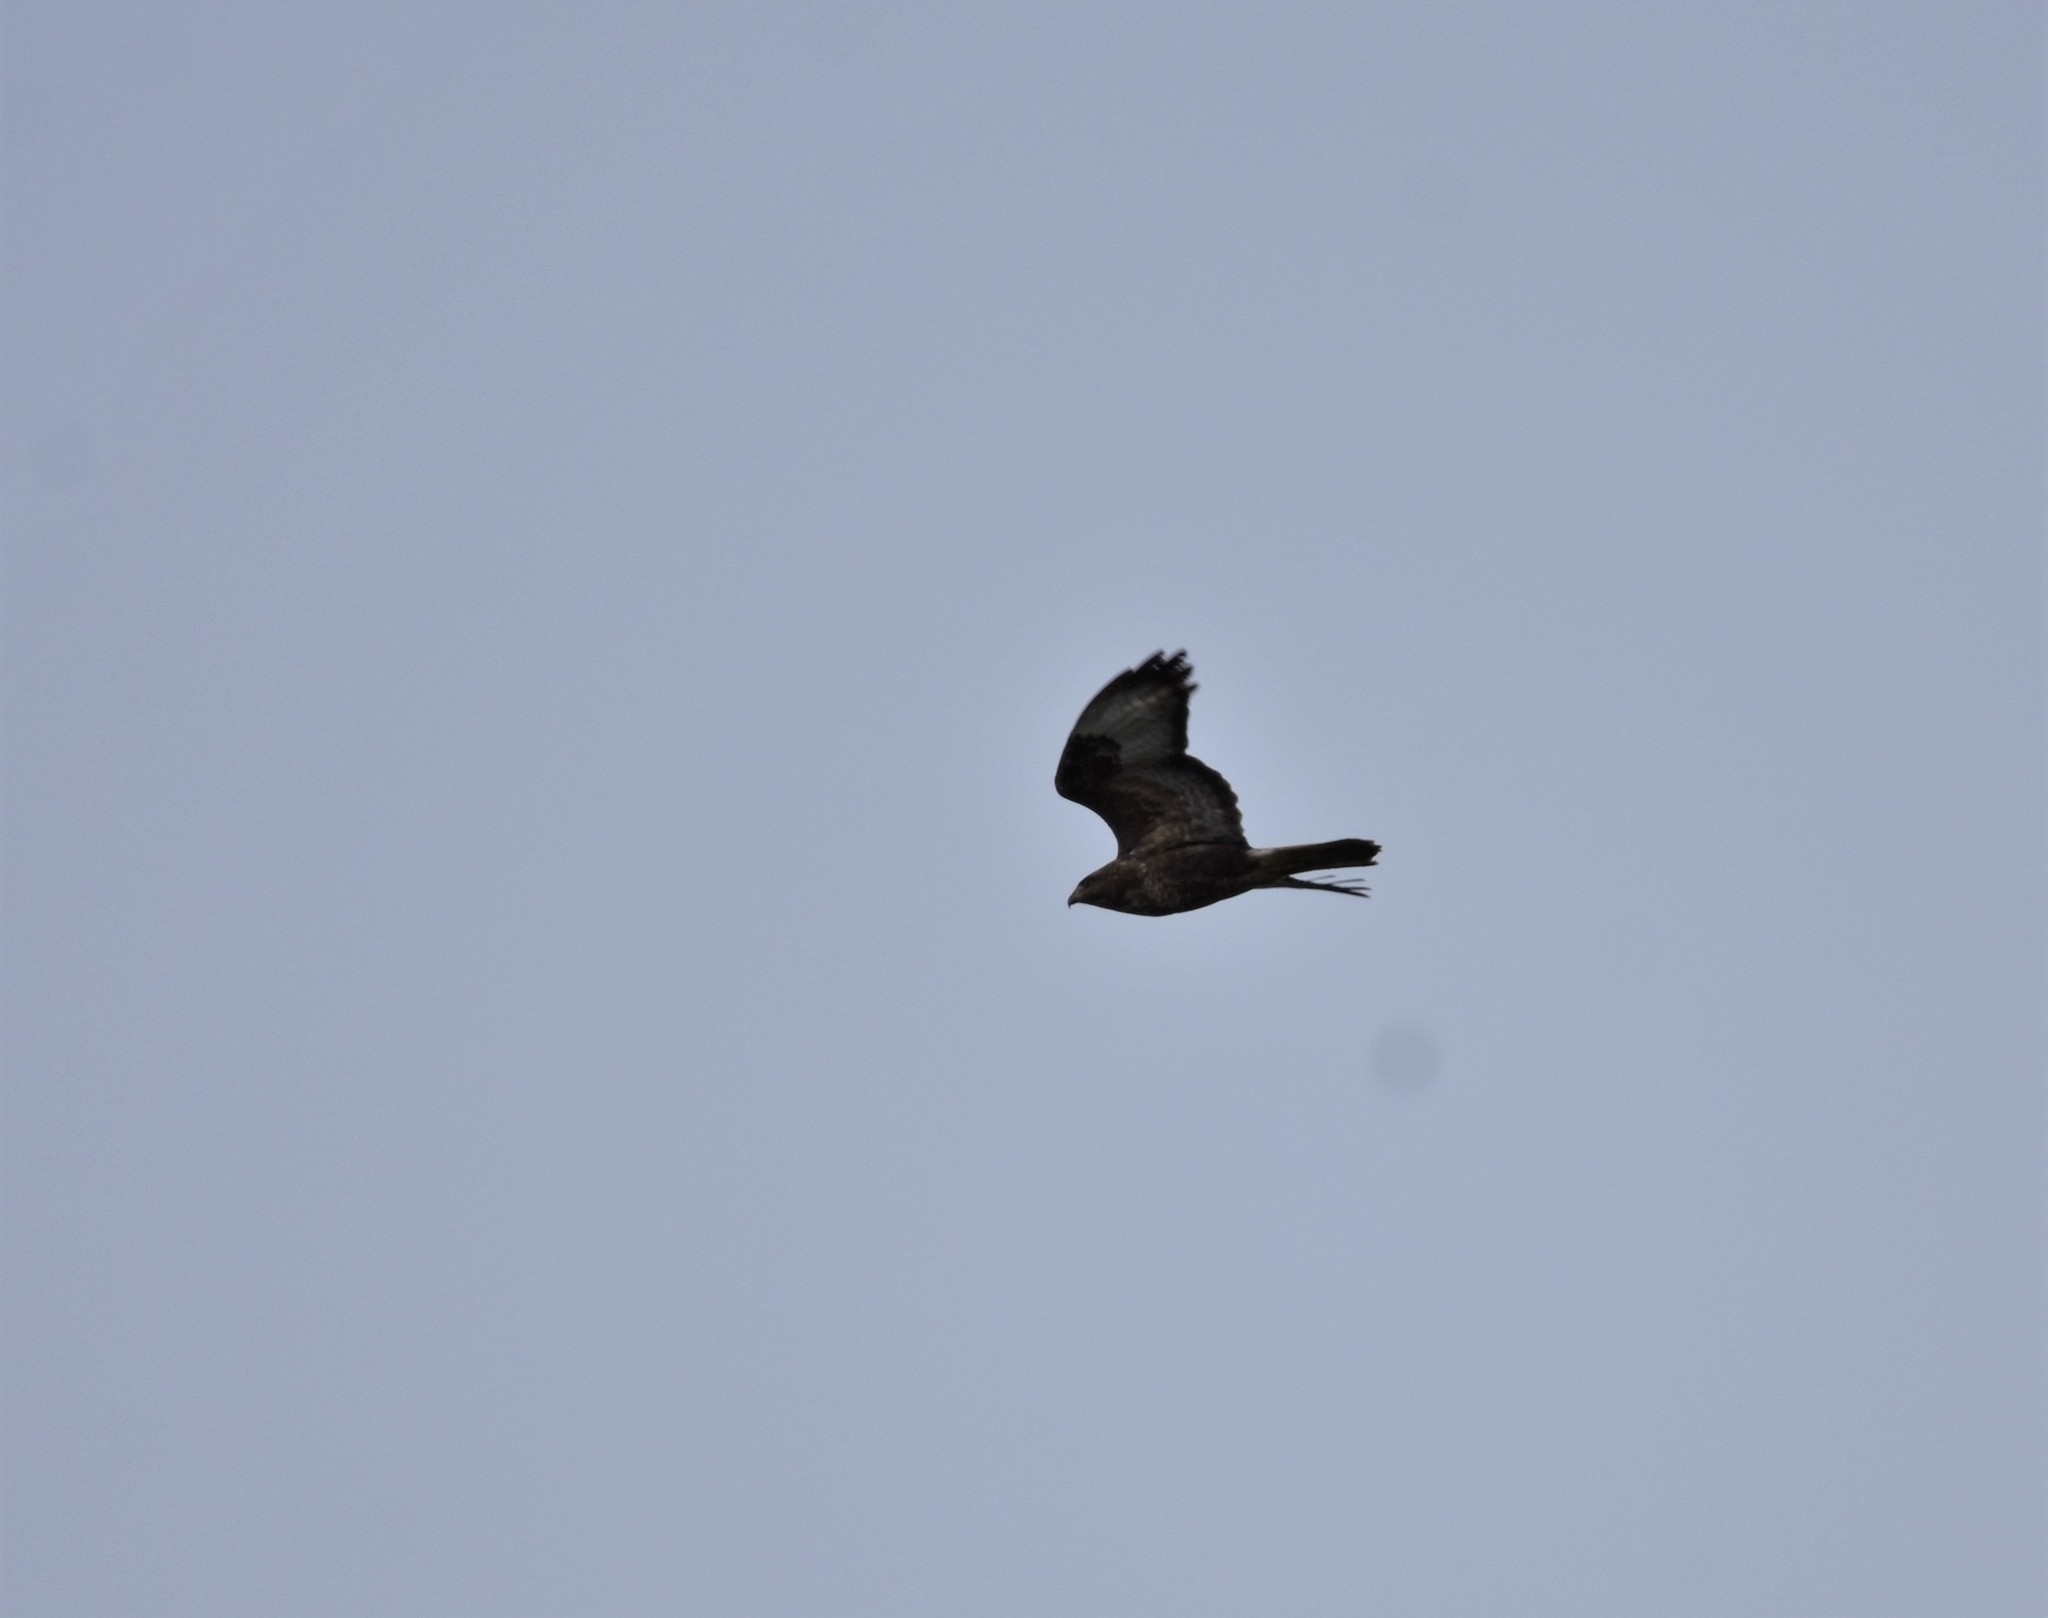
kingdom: Animalia
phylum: Chordata
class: Aves
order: Accipitriformes
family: Accipitridae
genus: Buteo
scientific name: Buteo buteo
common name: Common buzzard
